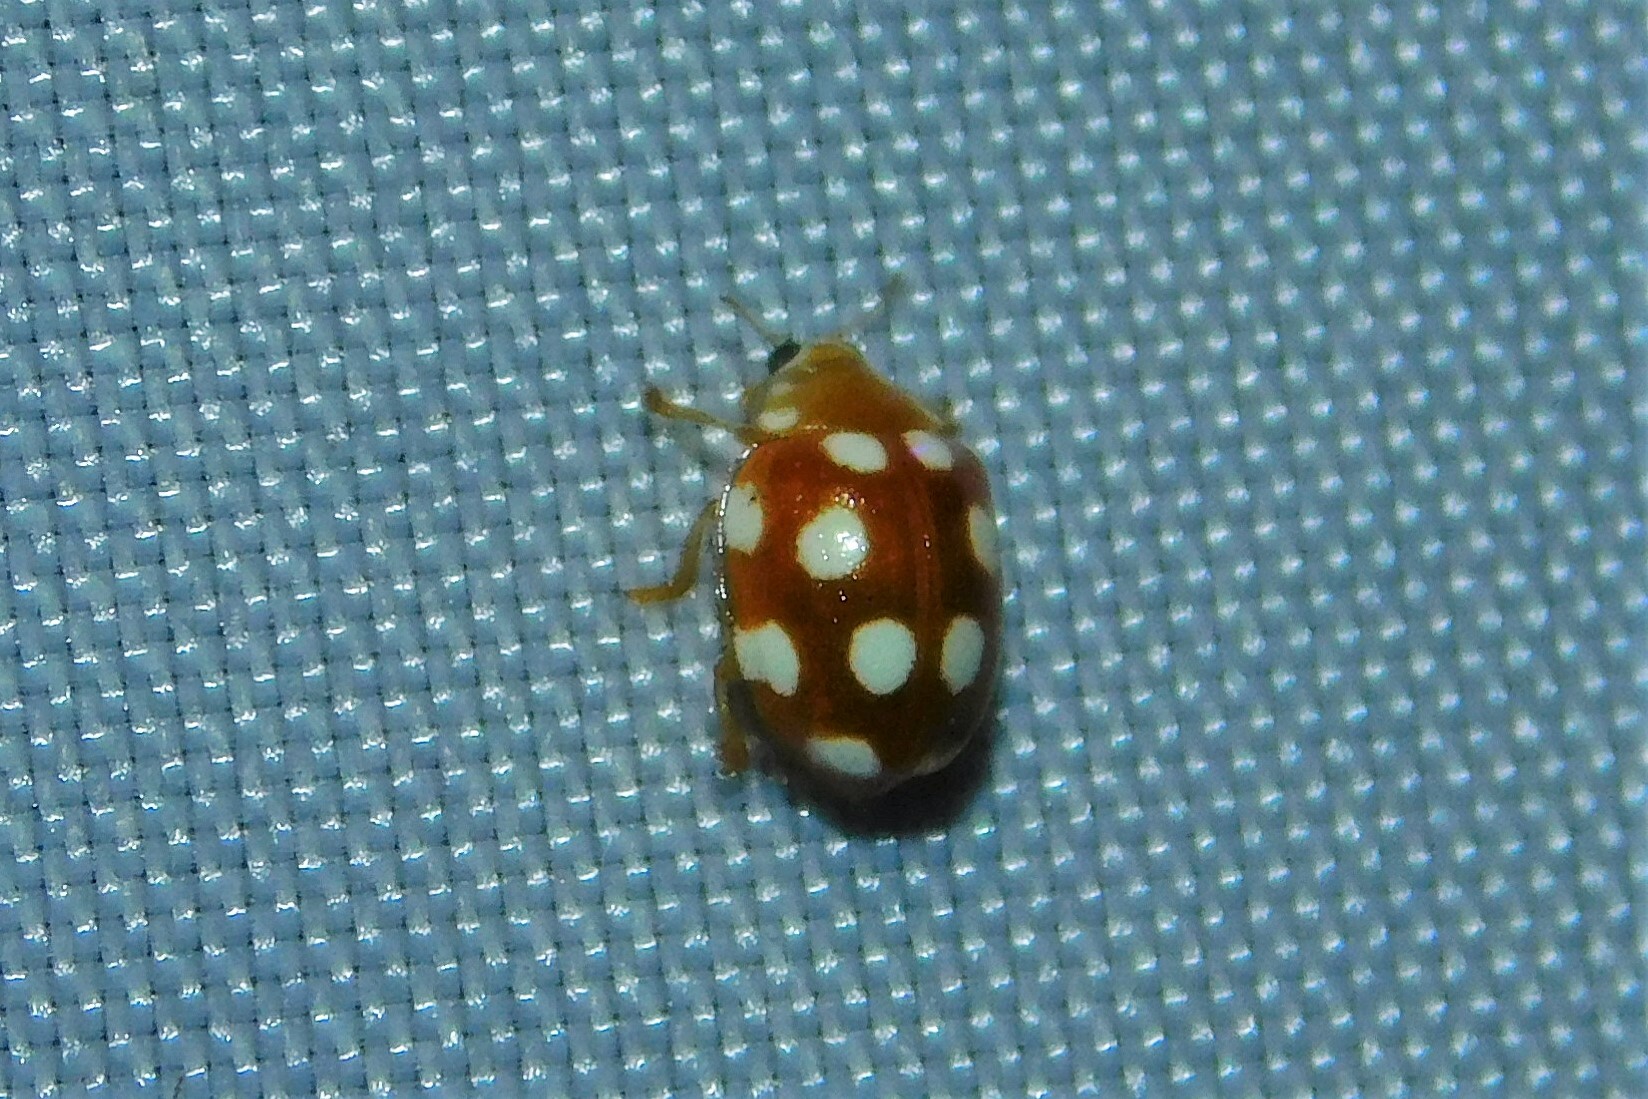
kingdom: Animalia
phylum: Arthropoda
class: Insecta
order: Coleoptera
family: Coccinellidae
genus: Vibidia
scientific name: Vibidia duodecimguttata
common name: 12-spot ladybird
